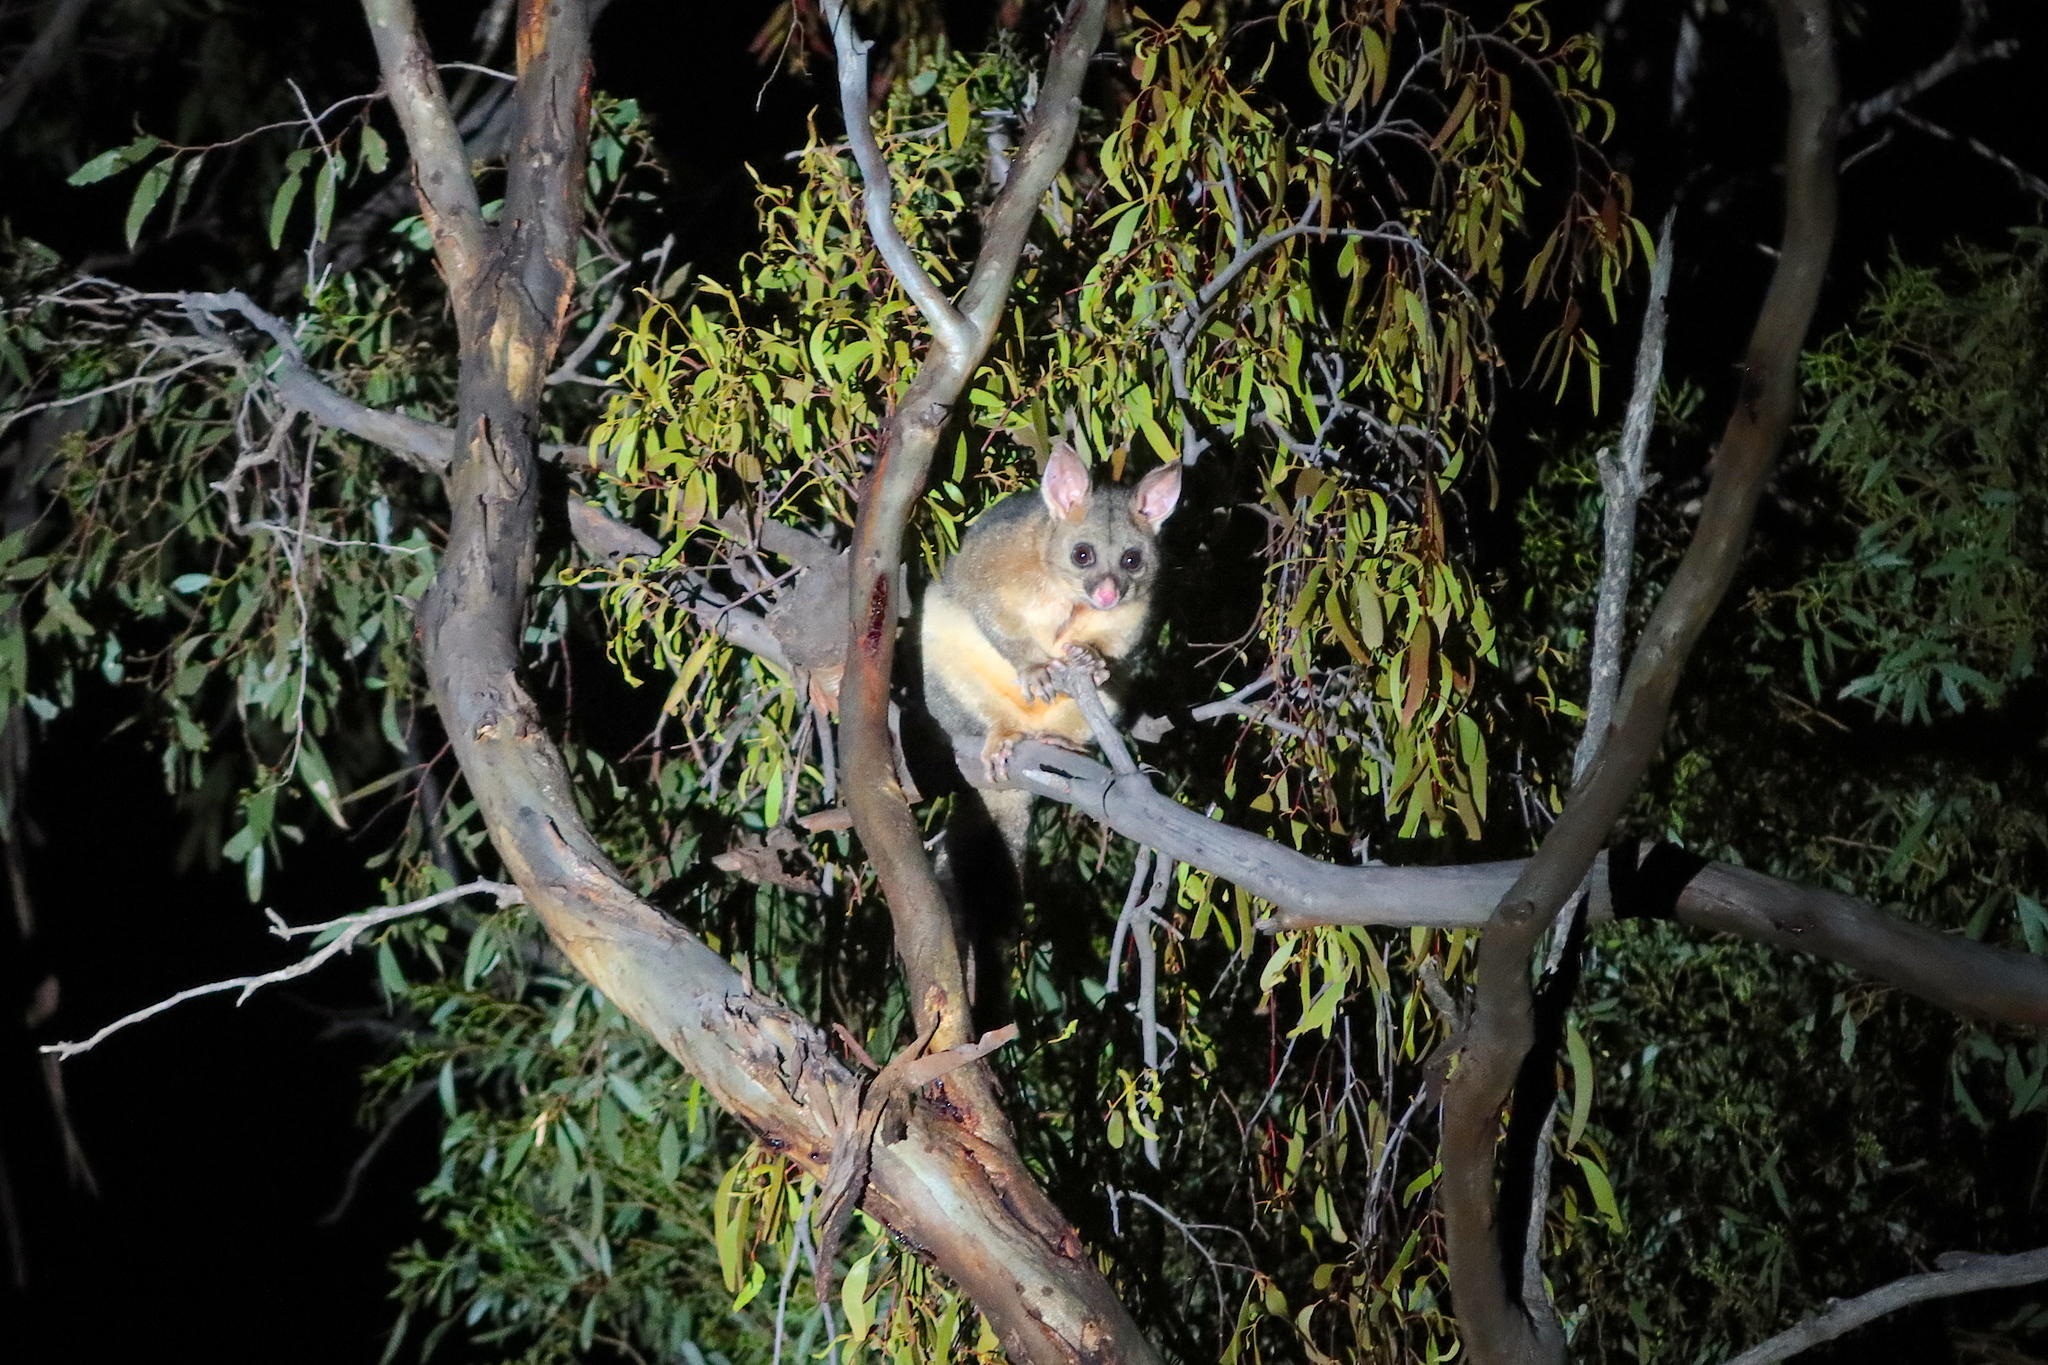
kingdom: Animalia
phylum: Chordata
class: Mammalia
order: Diprotodontia
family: Phalangeridae
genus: Trichosurus
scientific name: Trichosurus vulpecula
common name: Common brushtail
